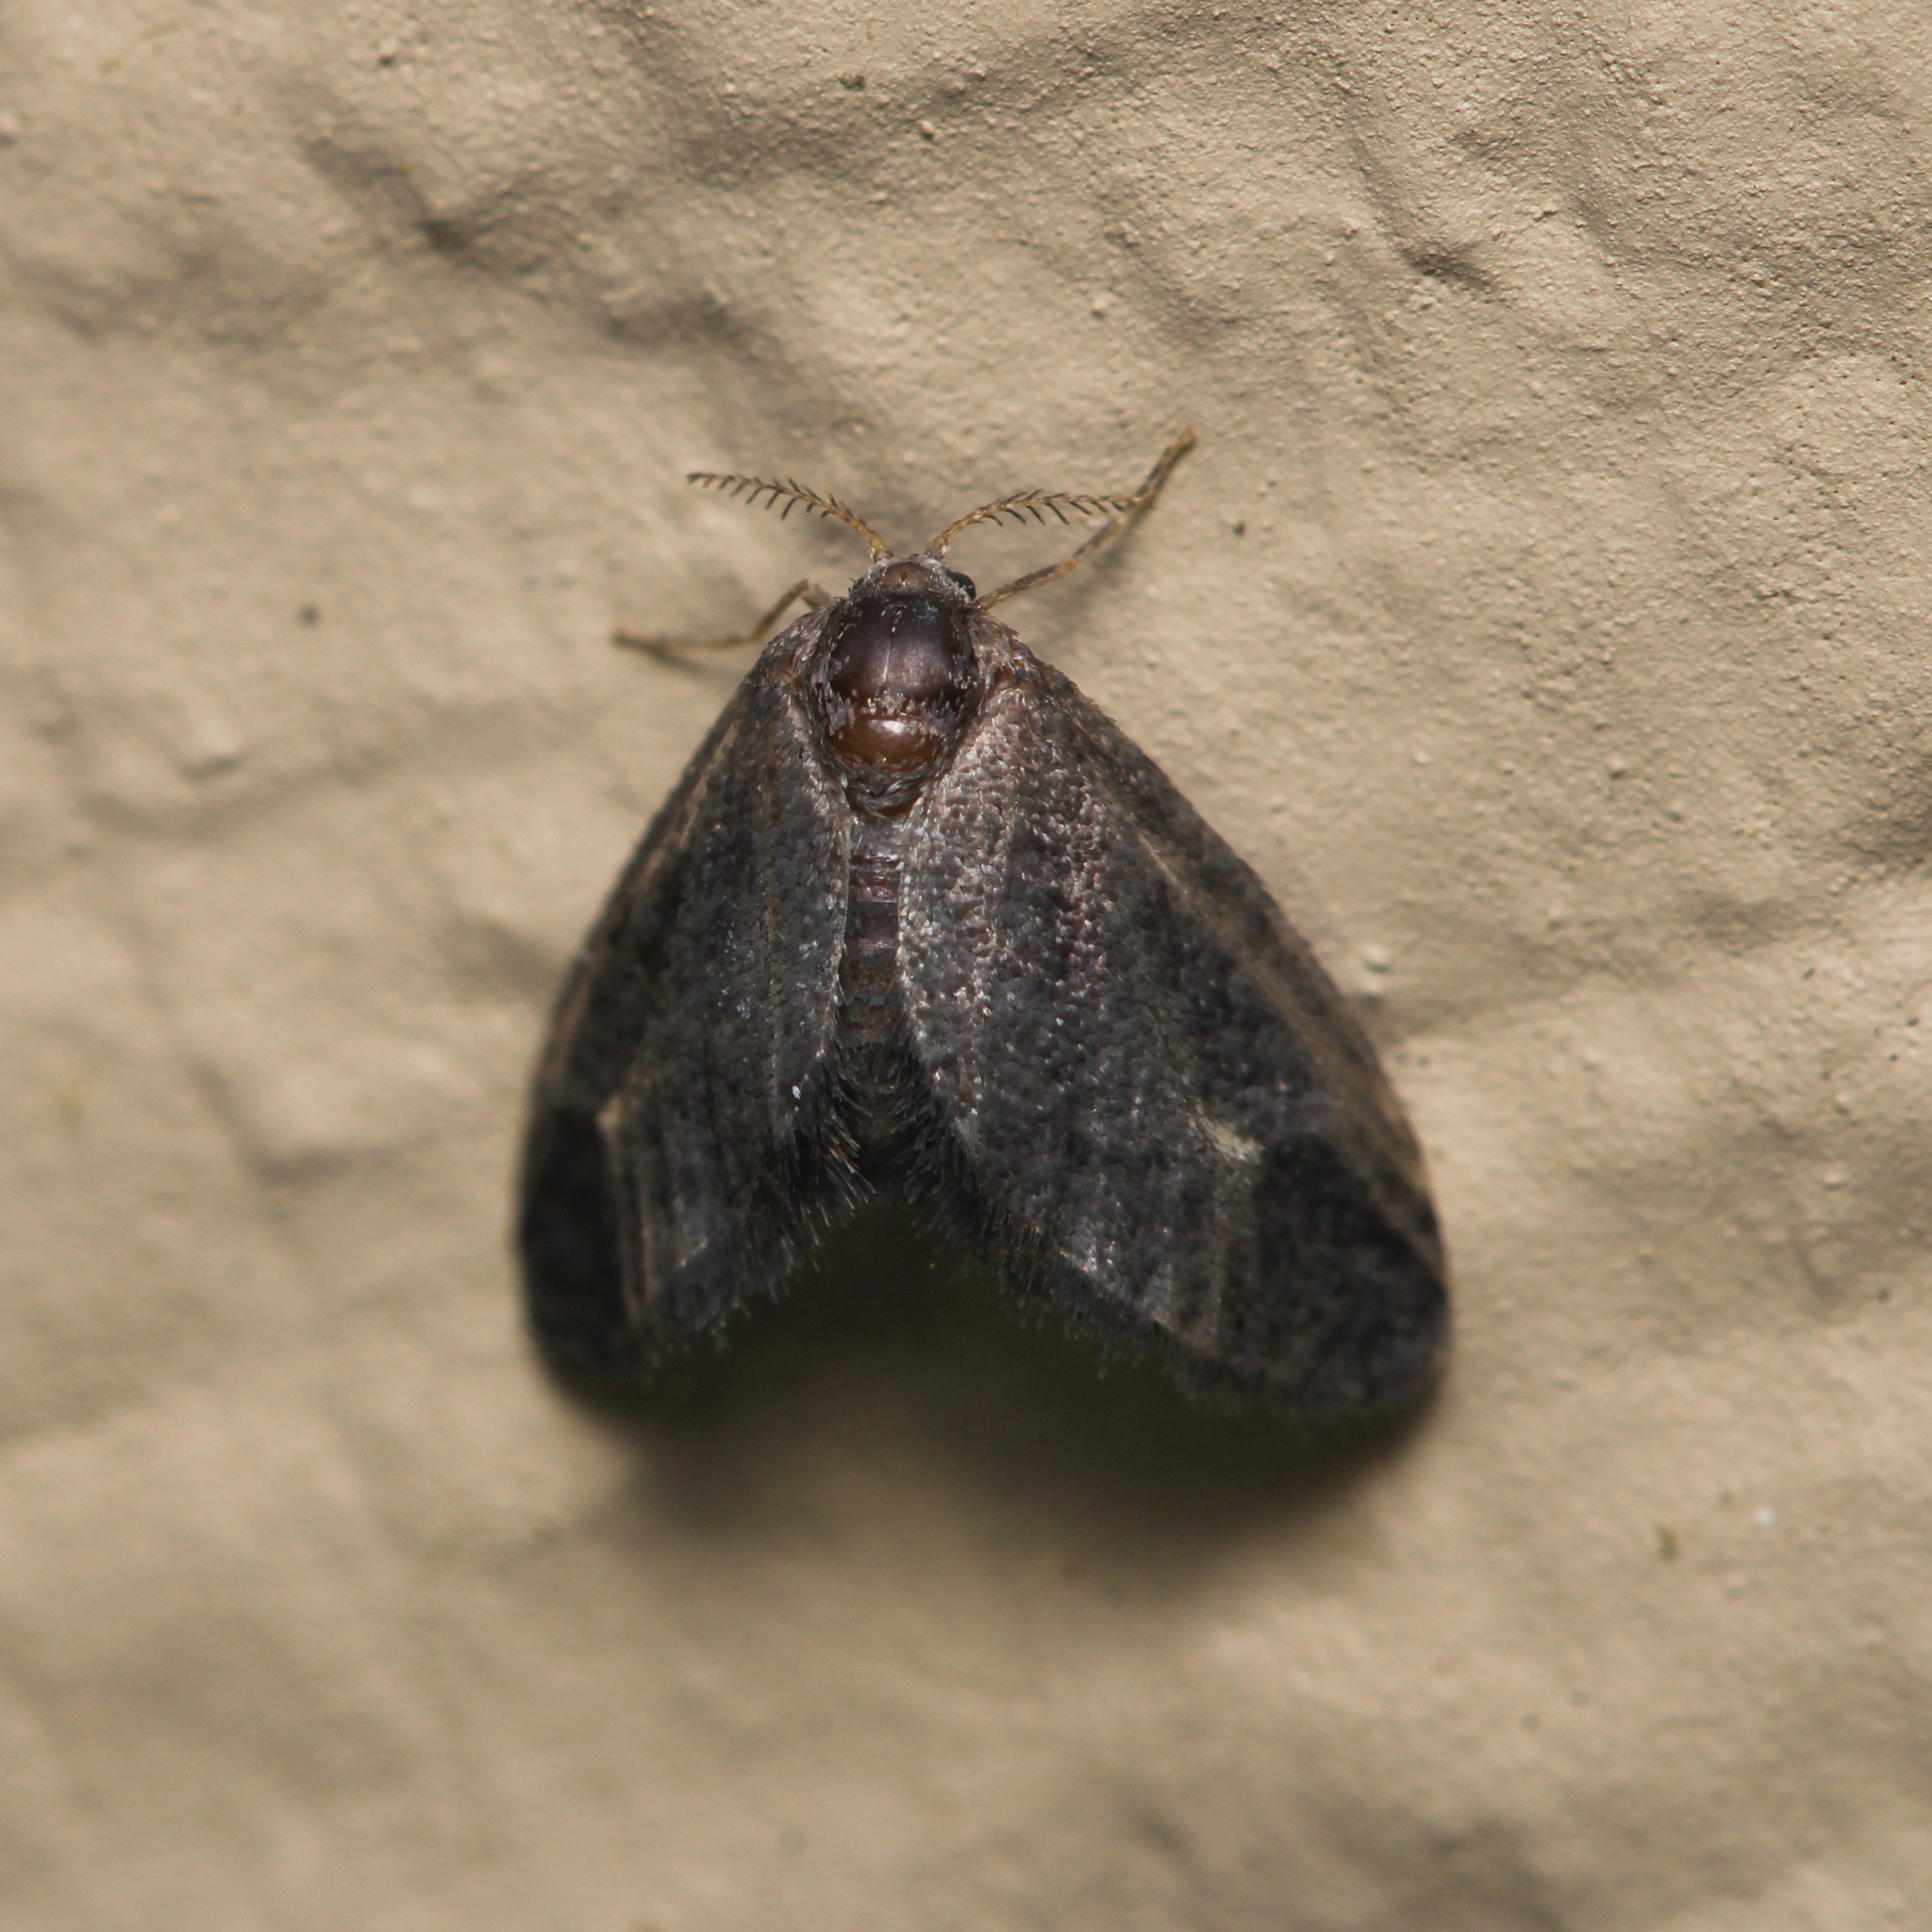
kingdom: Animalia
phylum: Arthropoda
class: Insecta
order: Lepidoptera
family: Epipyropidae
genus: Fulgoraecia
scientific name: Fulgoraecia exigua
